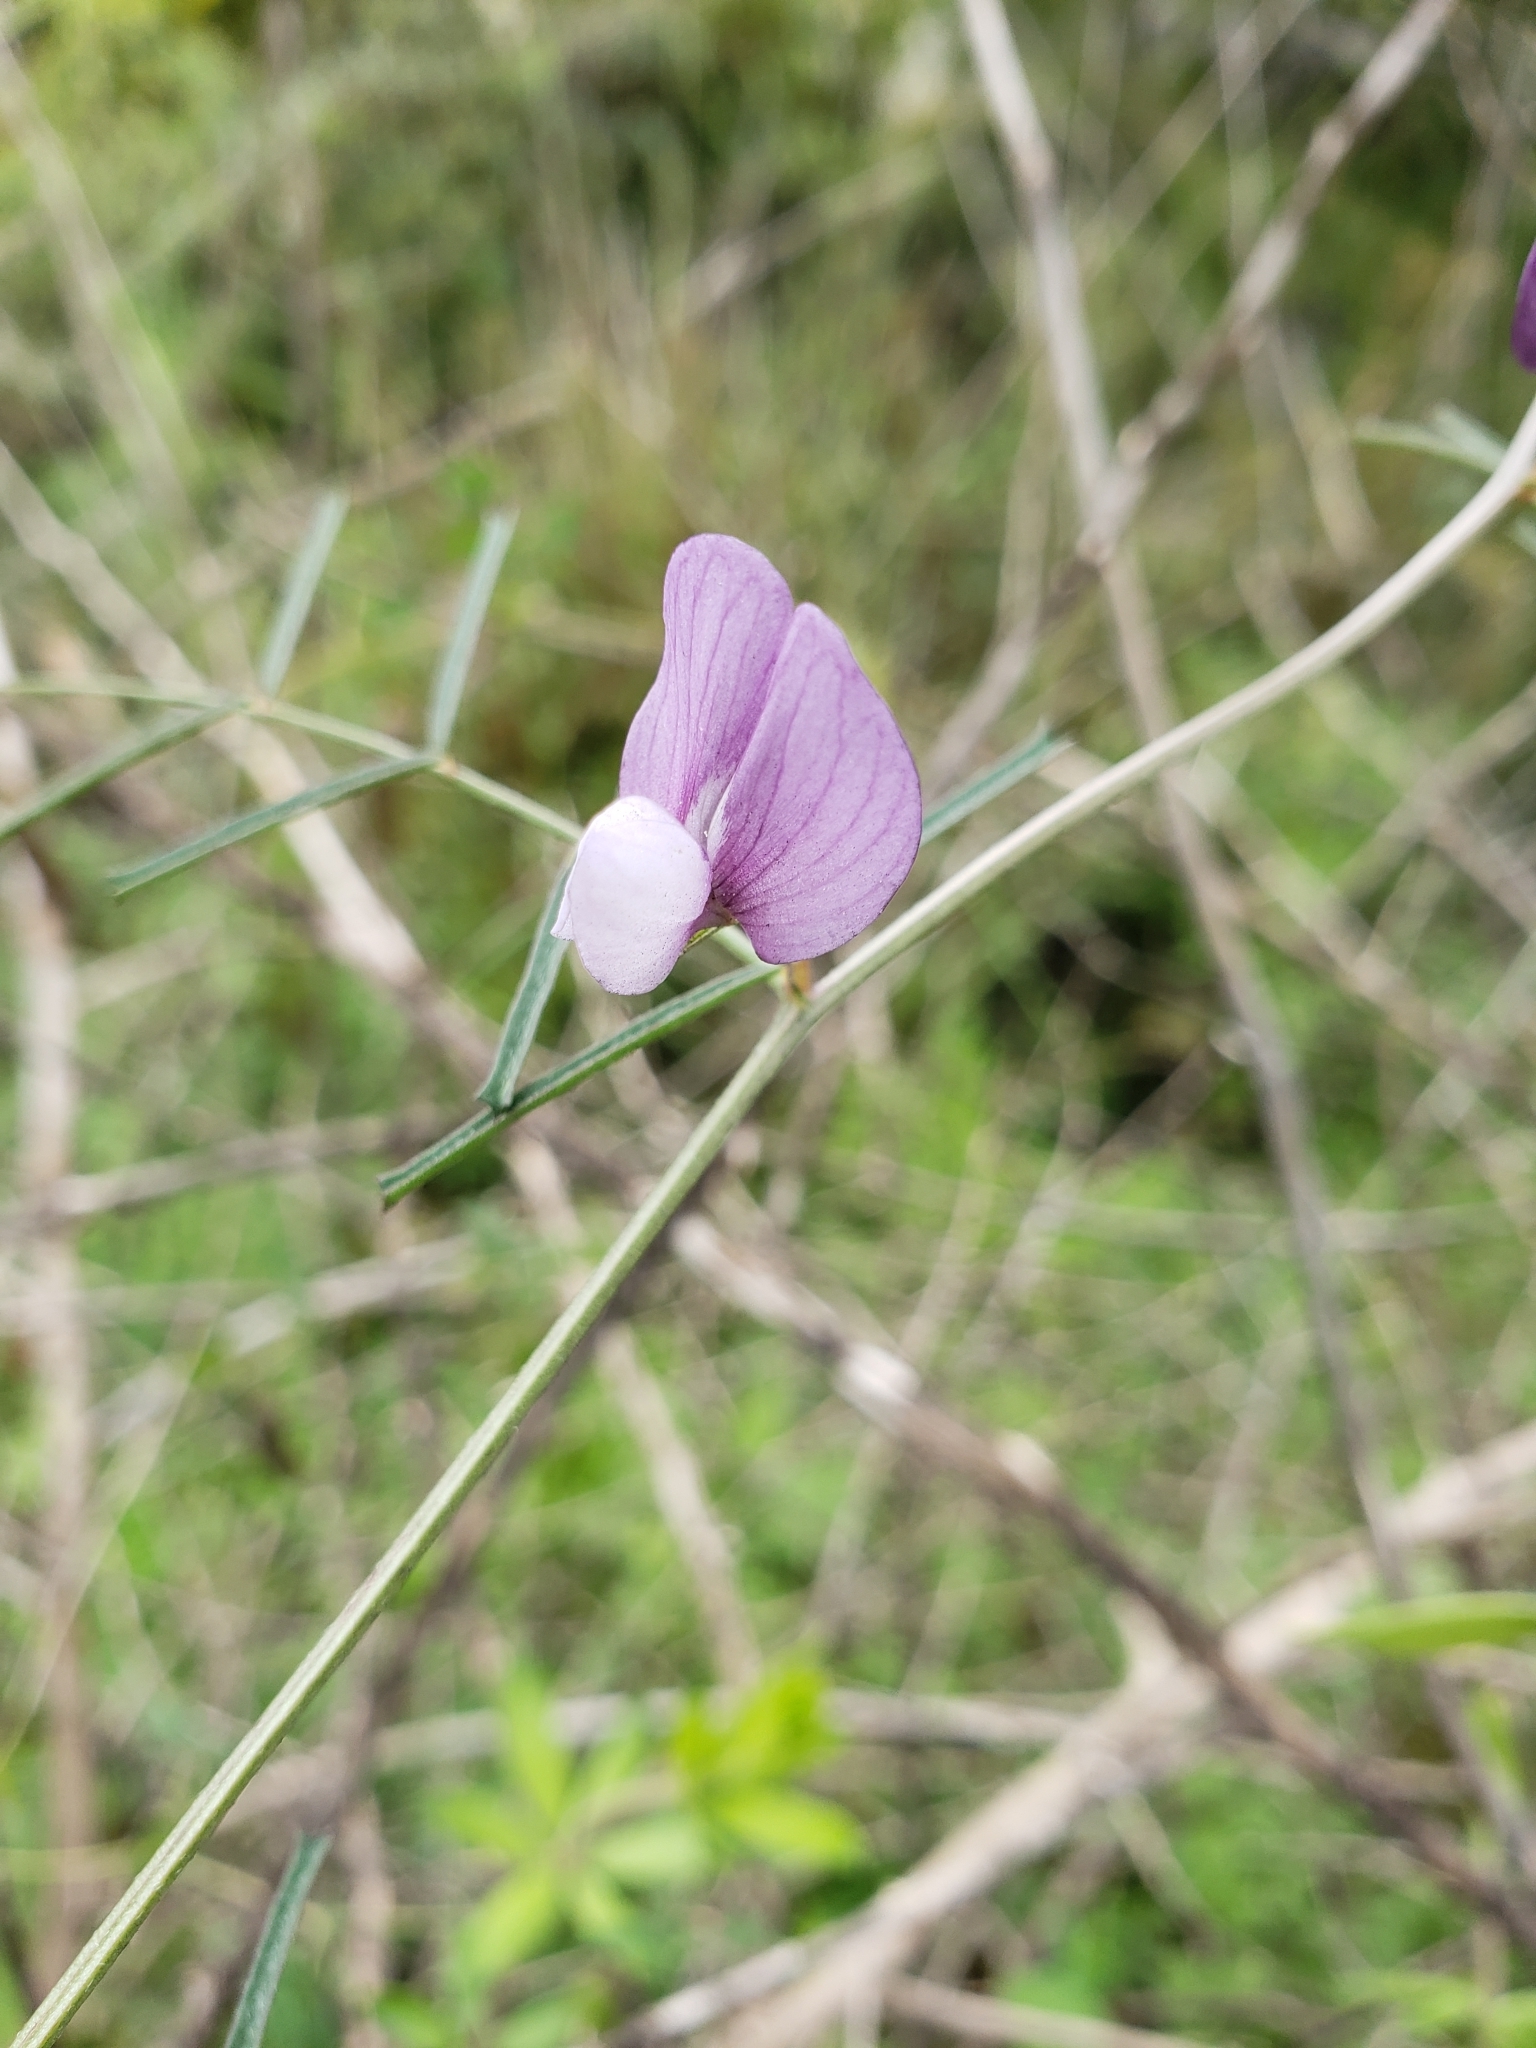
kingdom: Plantae
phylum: Tracheophyta
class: Magnoliopsida
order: Fabales
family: Fabaceae
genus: Vicia
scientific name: Vicia peregrina
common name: Broad-pod vetch
